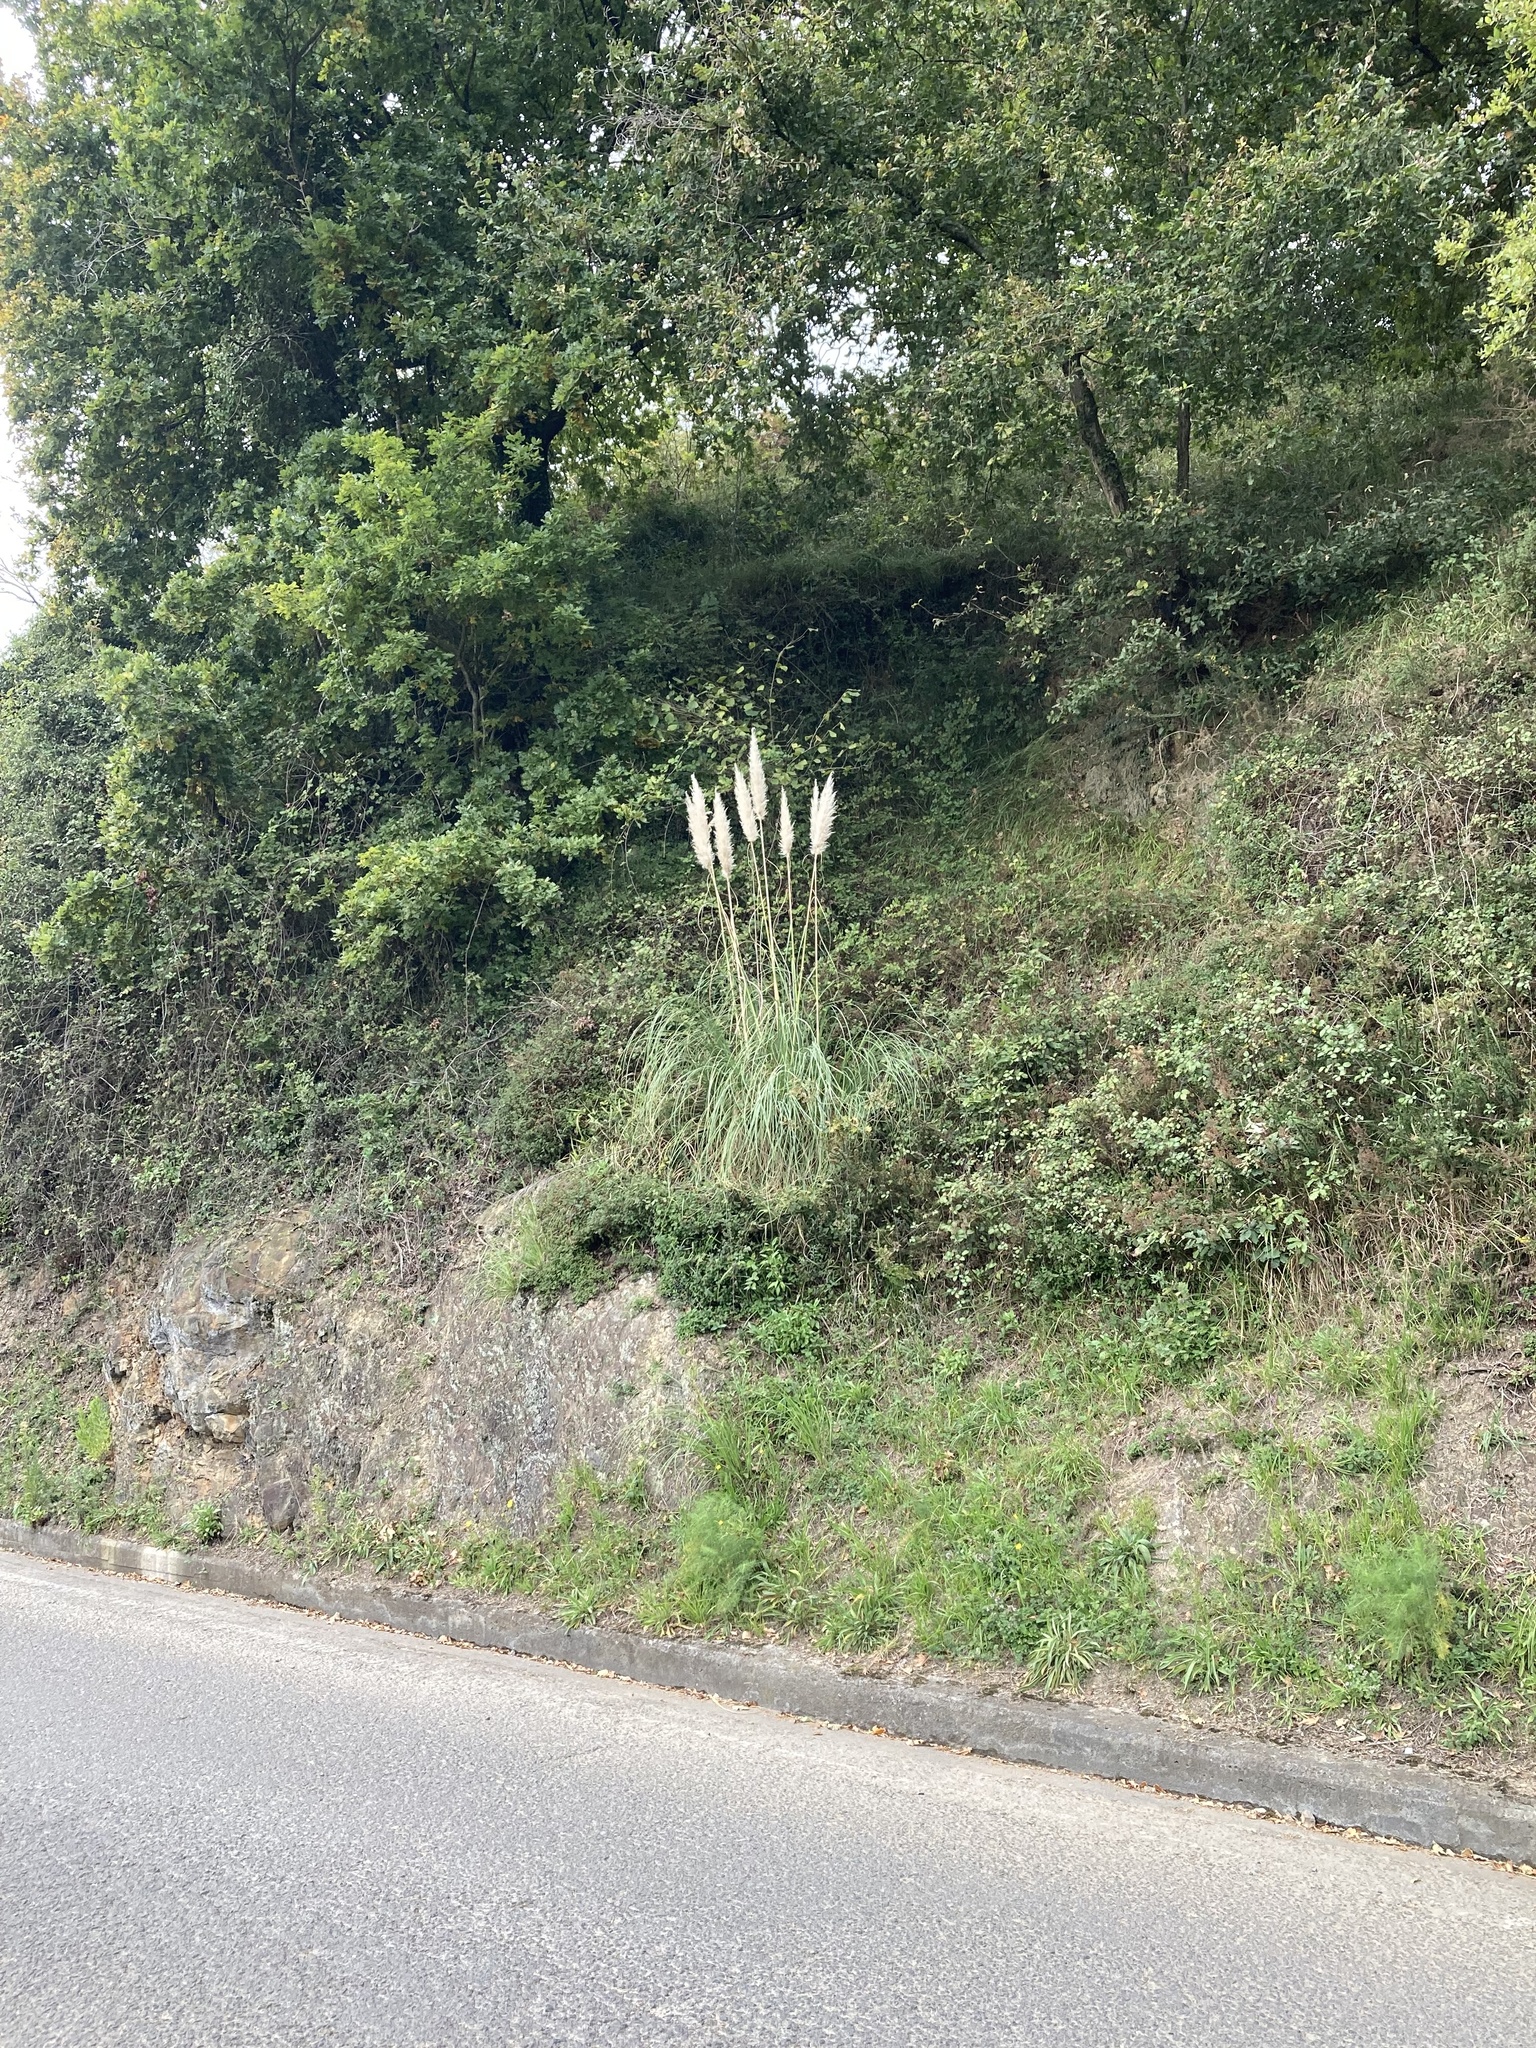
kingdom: Plantae
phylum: Tracheophyta
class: Liliopsida
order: Poales
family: Poaceae
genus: Cortaderia
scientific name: Cortaderia selloana
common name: Uruguayan pampas grass
